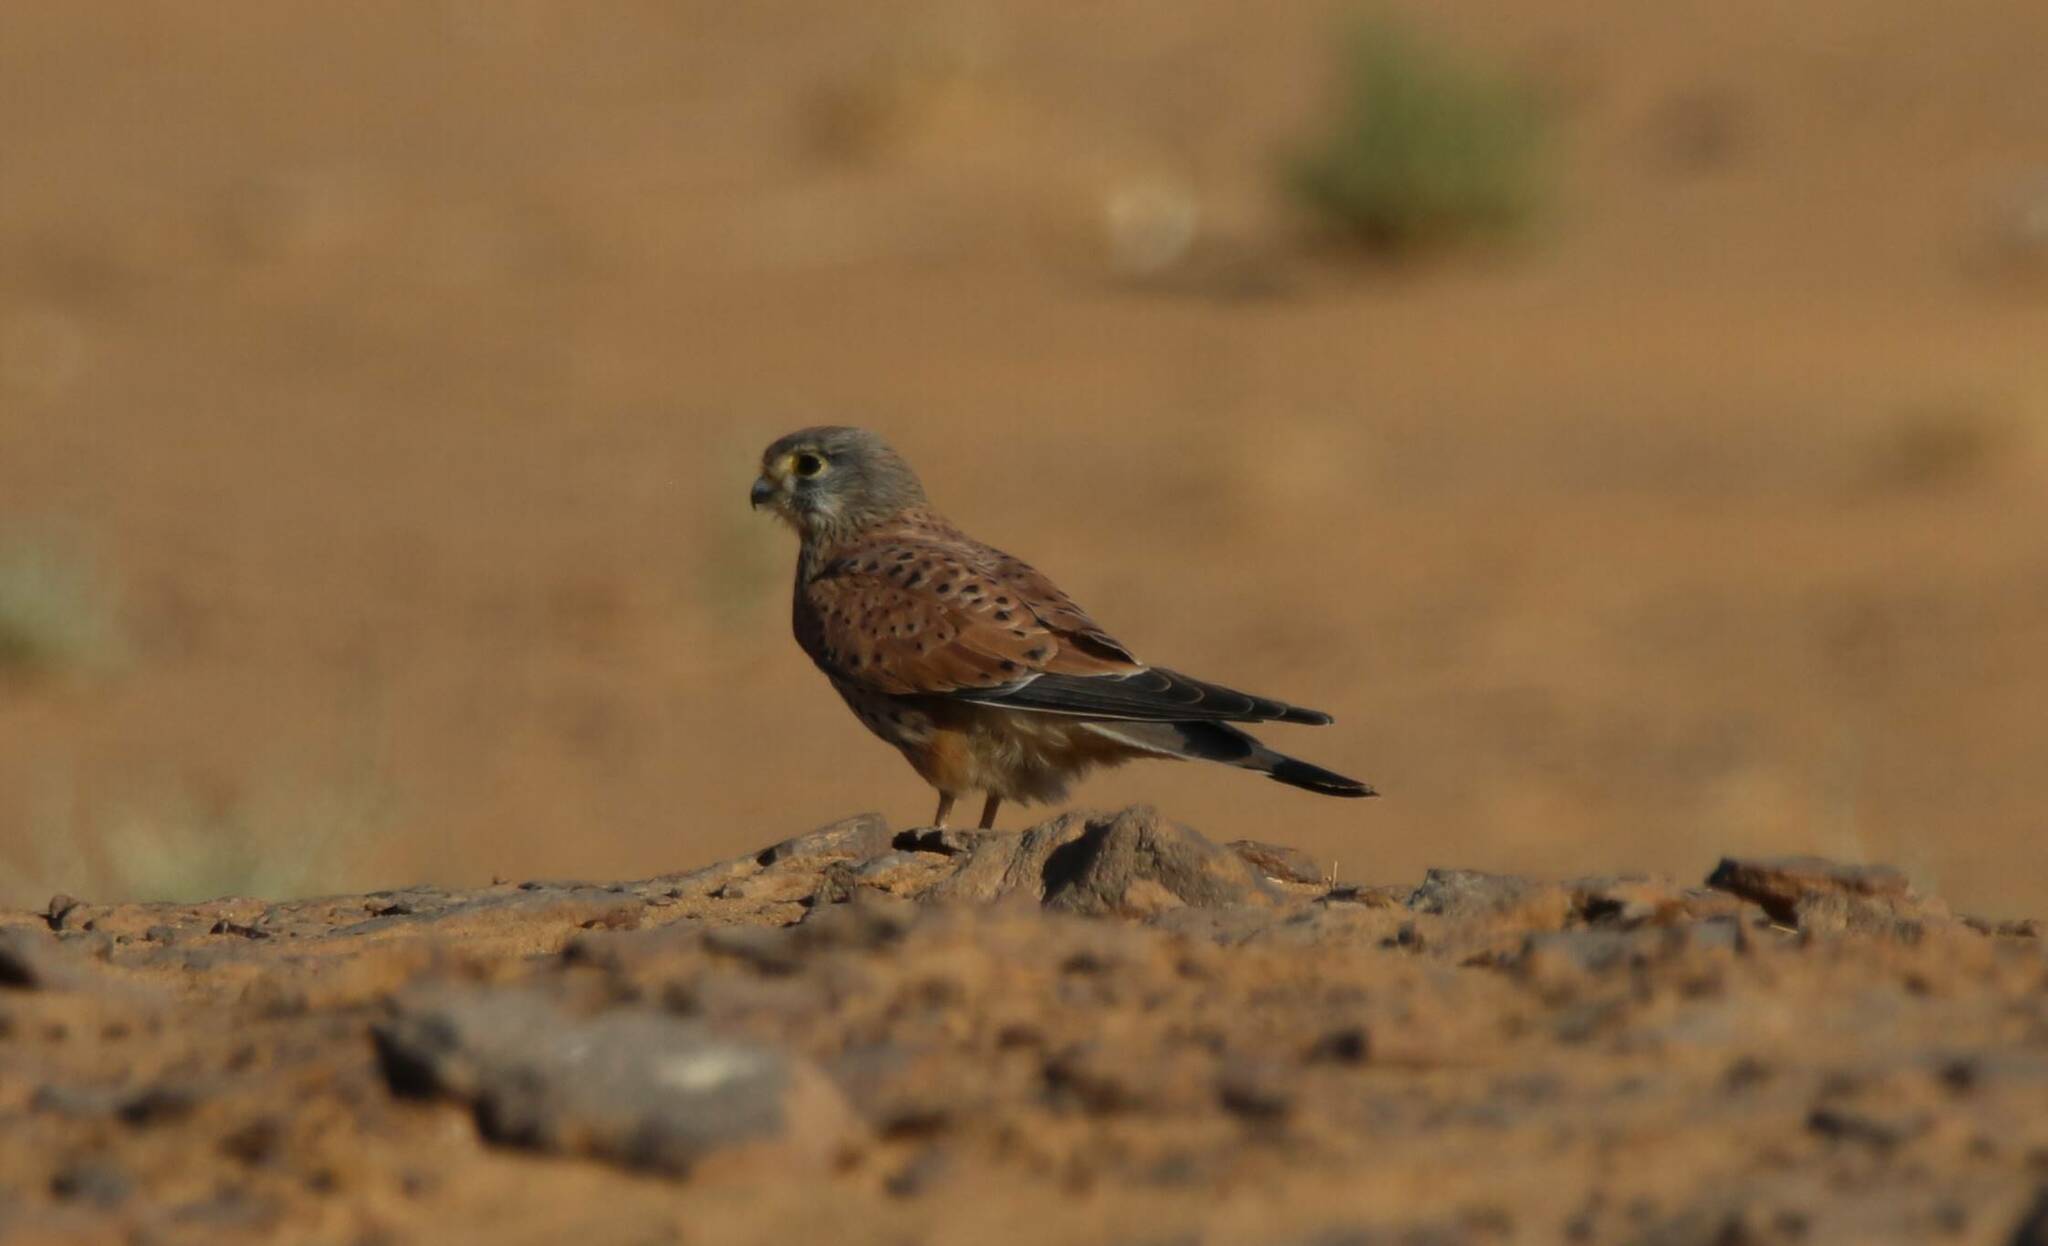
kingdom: Animalia
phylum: Chordata
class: Aves
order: Falconiformes
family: Falconidae
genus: Falco
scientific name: Falco tinnunculus
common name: Common kestrel
